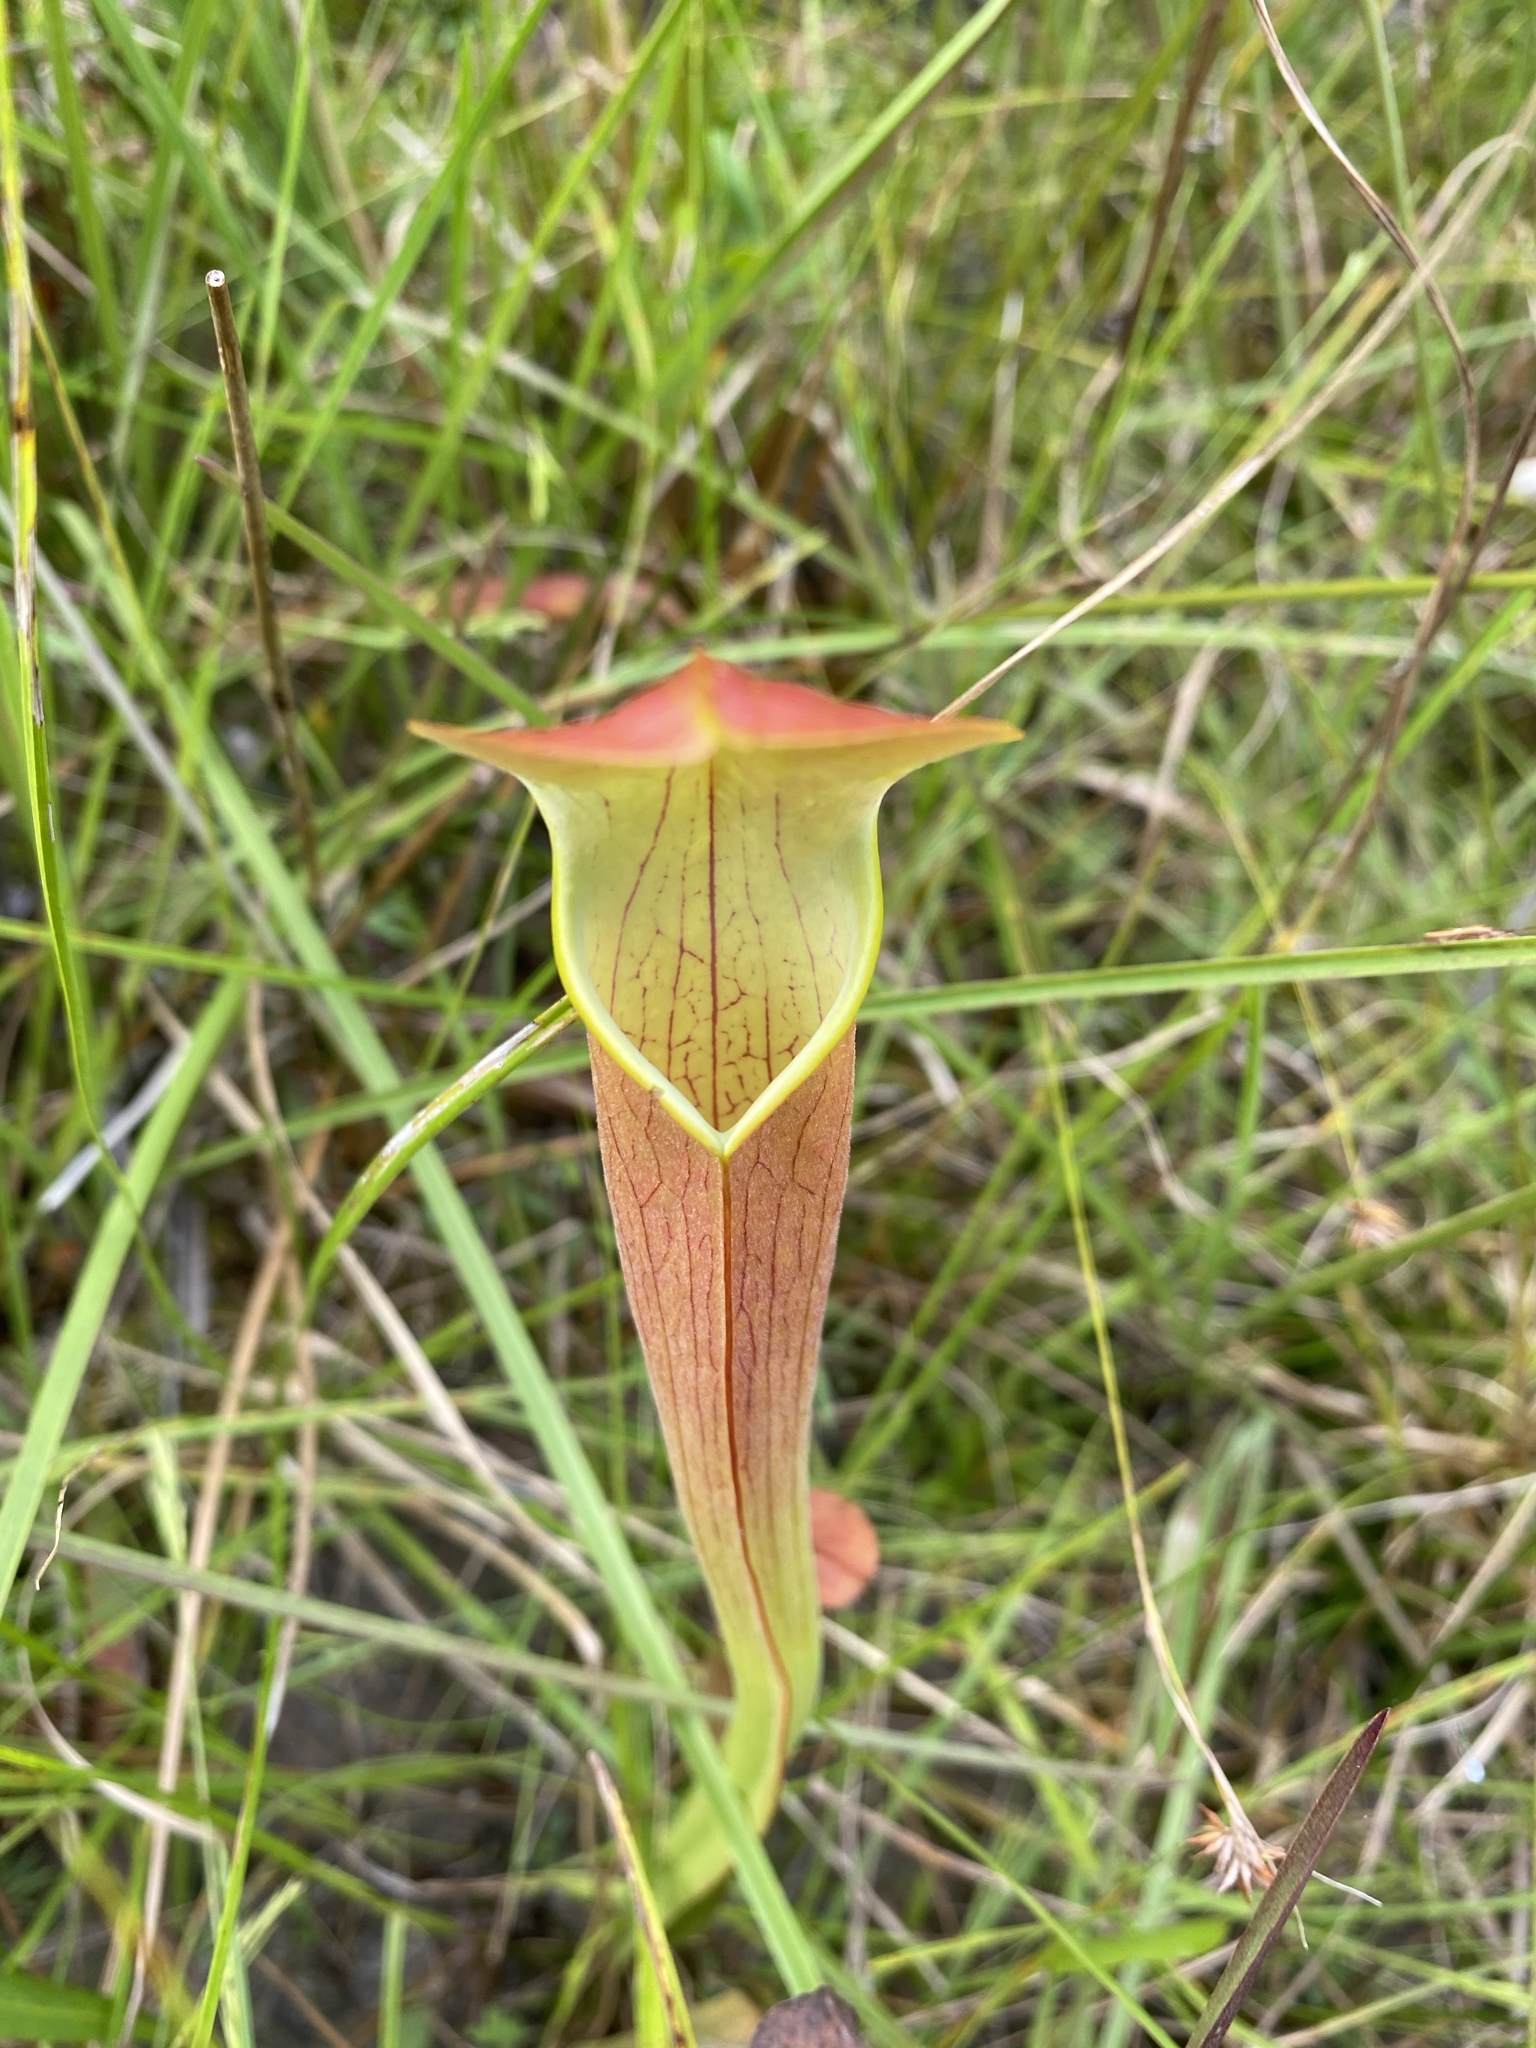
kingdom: Plantae
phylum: Tracheophyta
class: Magnoliopsida
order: Ericales
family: Sarraceniaceae
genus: Sarracenia
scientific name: Sarracenia rubra
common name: Sweet pitcherplant
